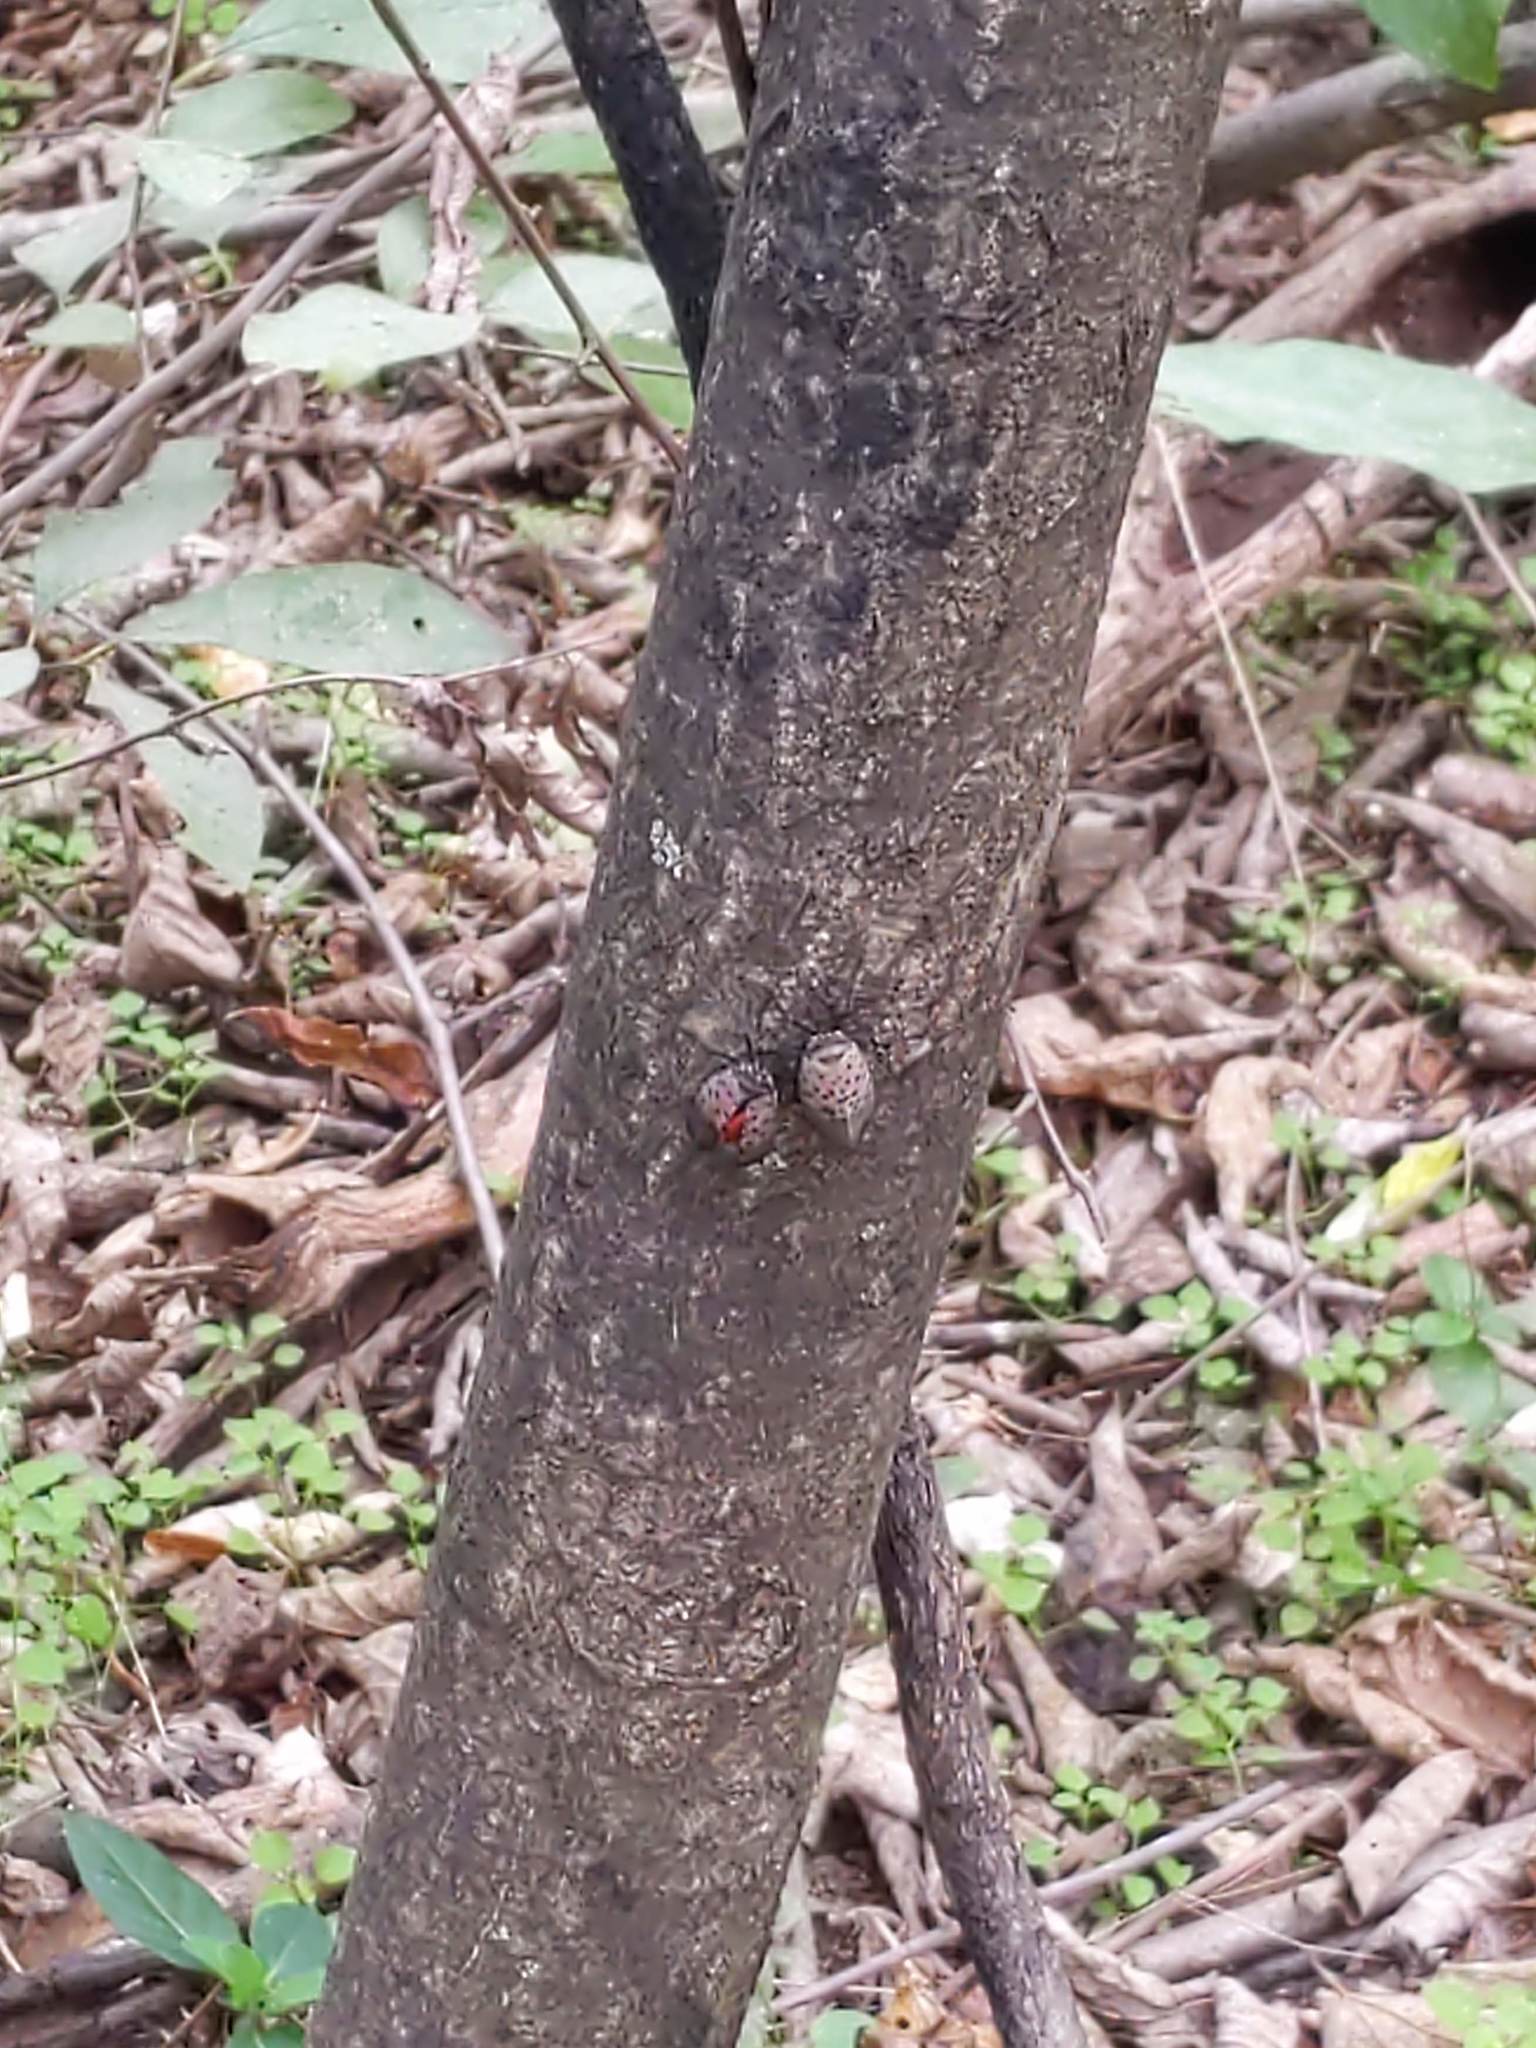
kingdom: Animalia
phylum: Arthropoda
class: Insecta
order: Hemiptera
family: Fulgoridae
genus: Lycorma
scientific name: Lycorma delicatula
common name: Spotted lanternfly
